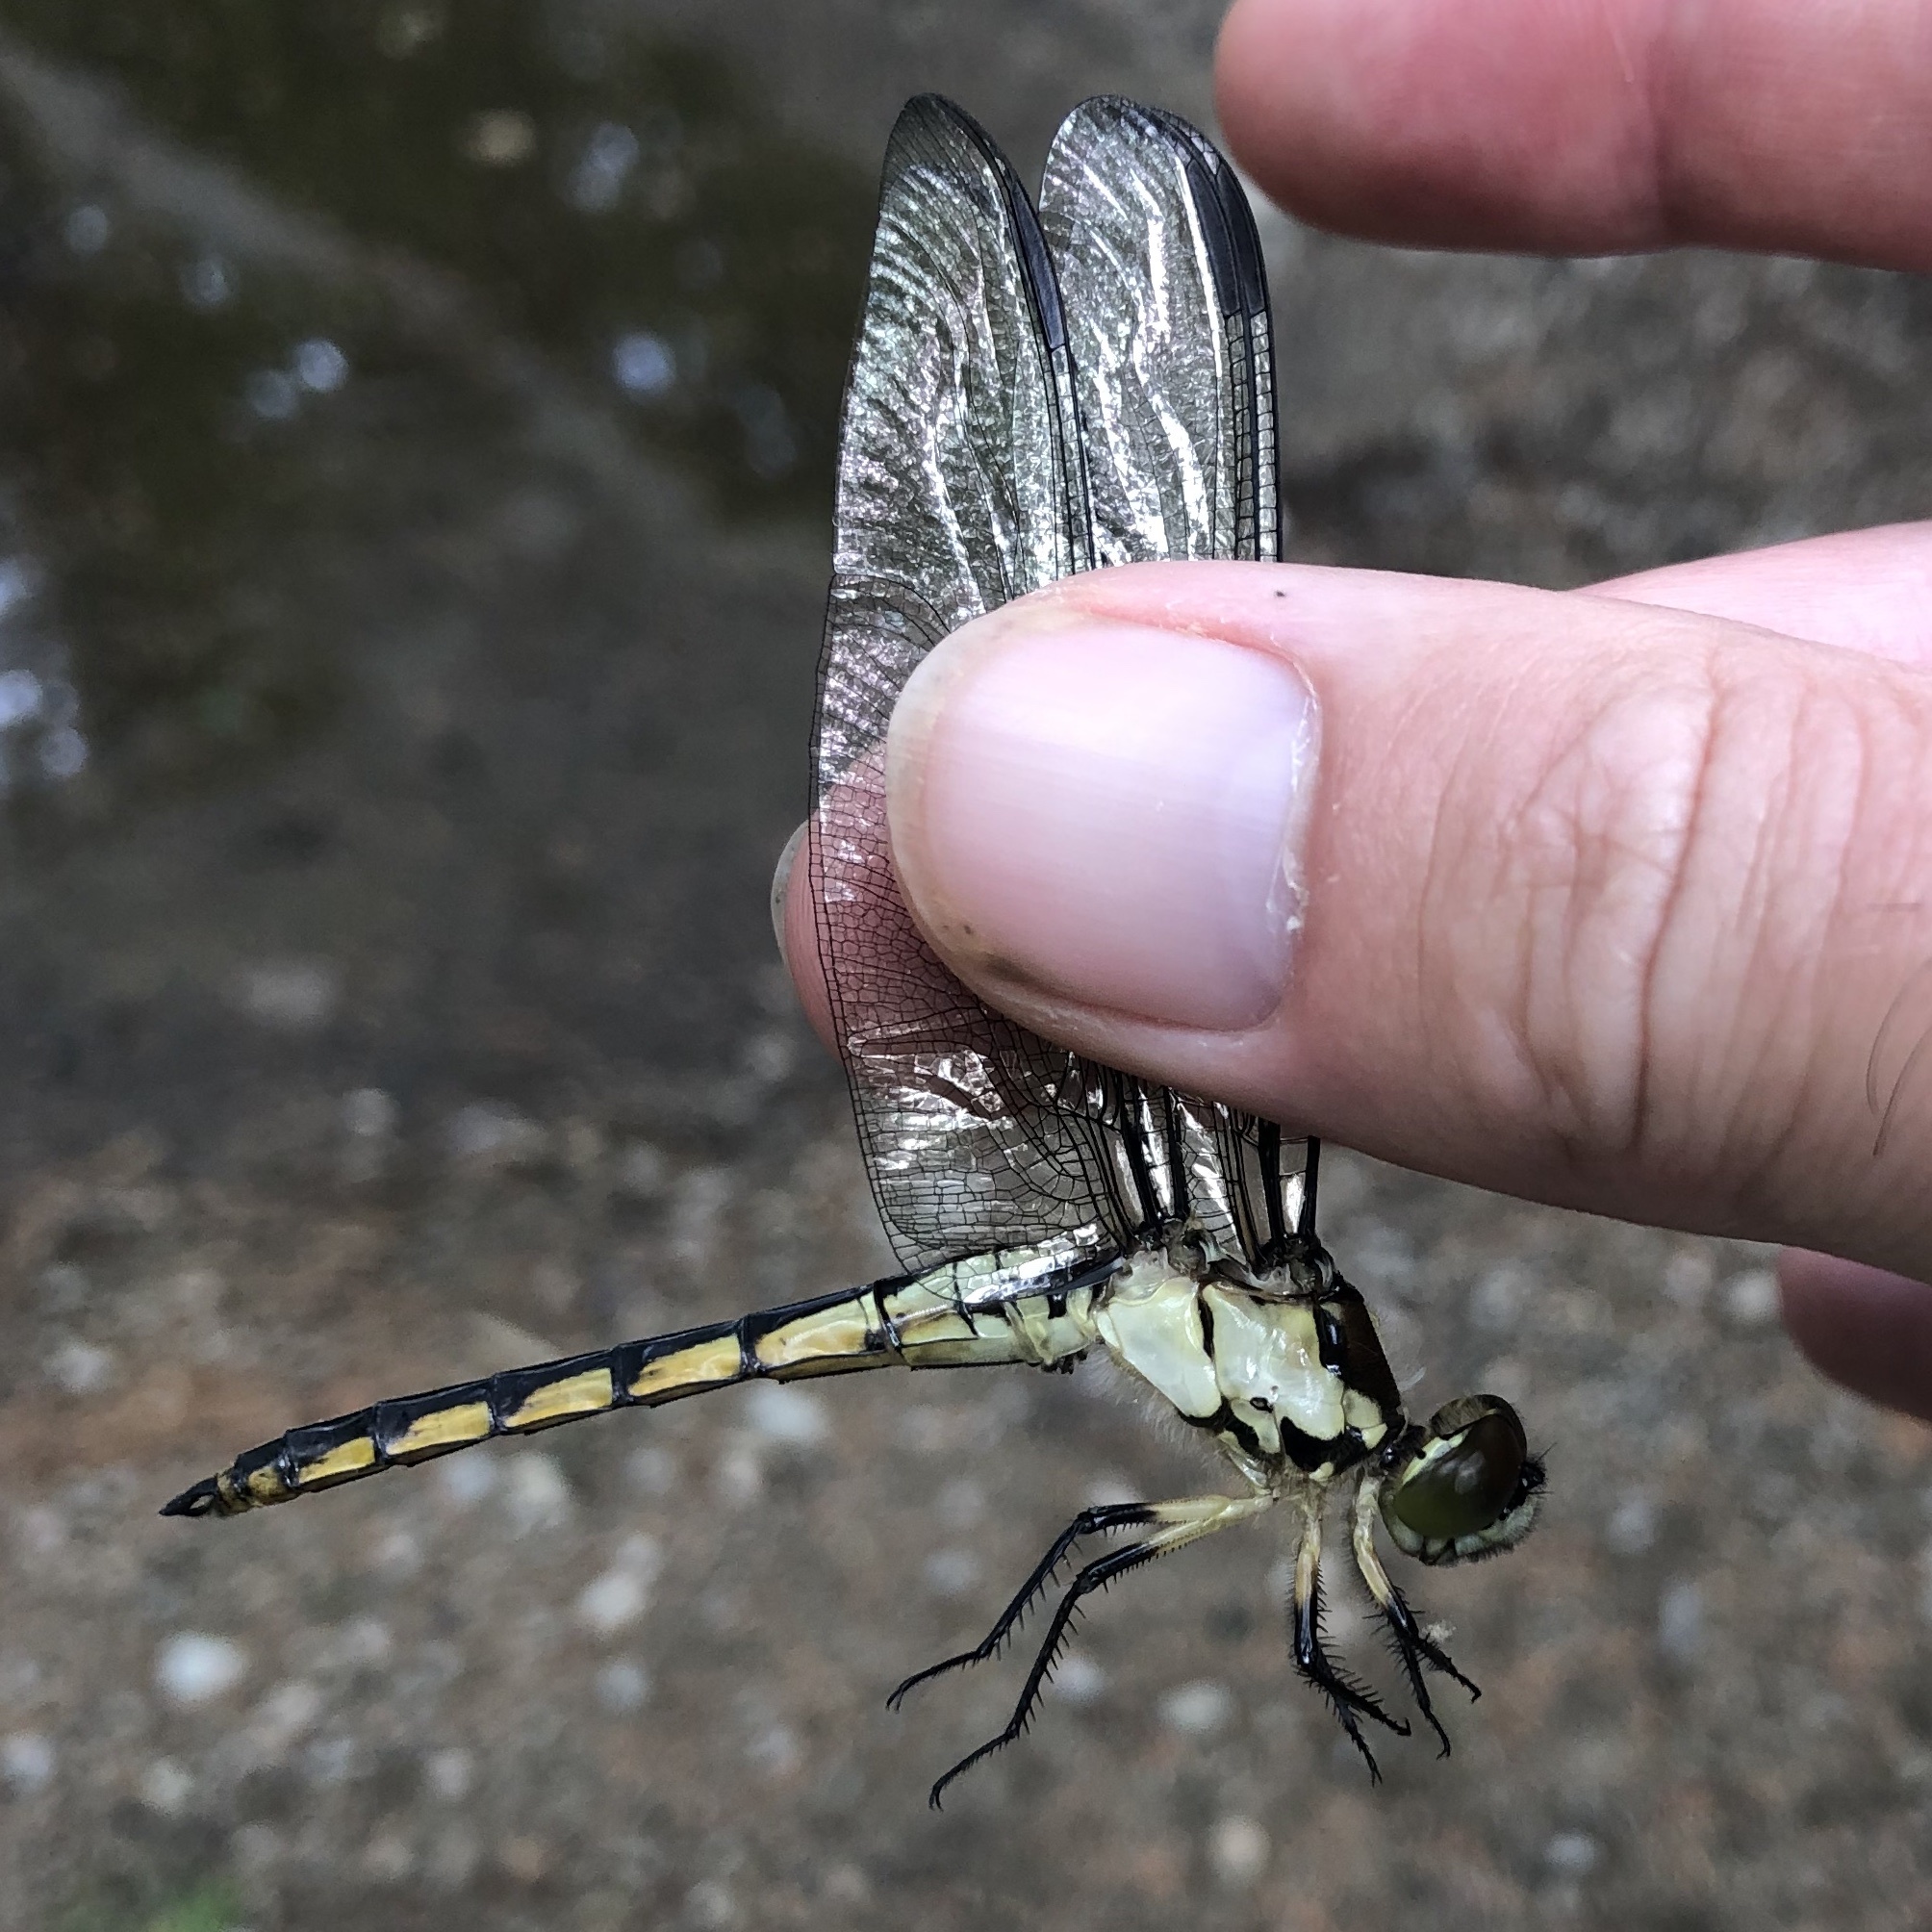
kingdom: Animalia
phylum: Arthropoda
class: Insecta
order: Odonata
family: Libellulidae
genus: Libellula
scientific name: Libellula vibrans
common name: Great blue skimmer
